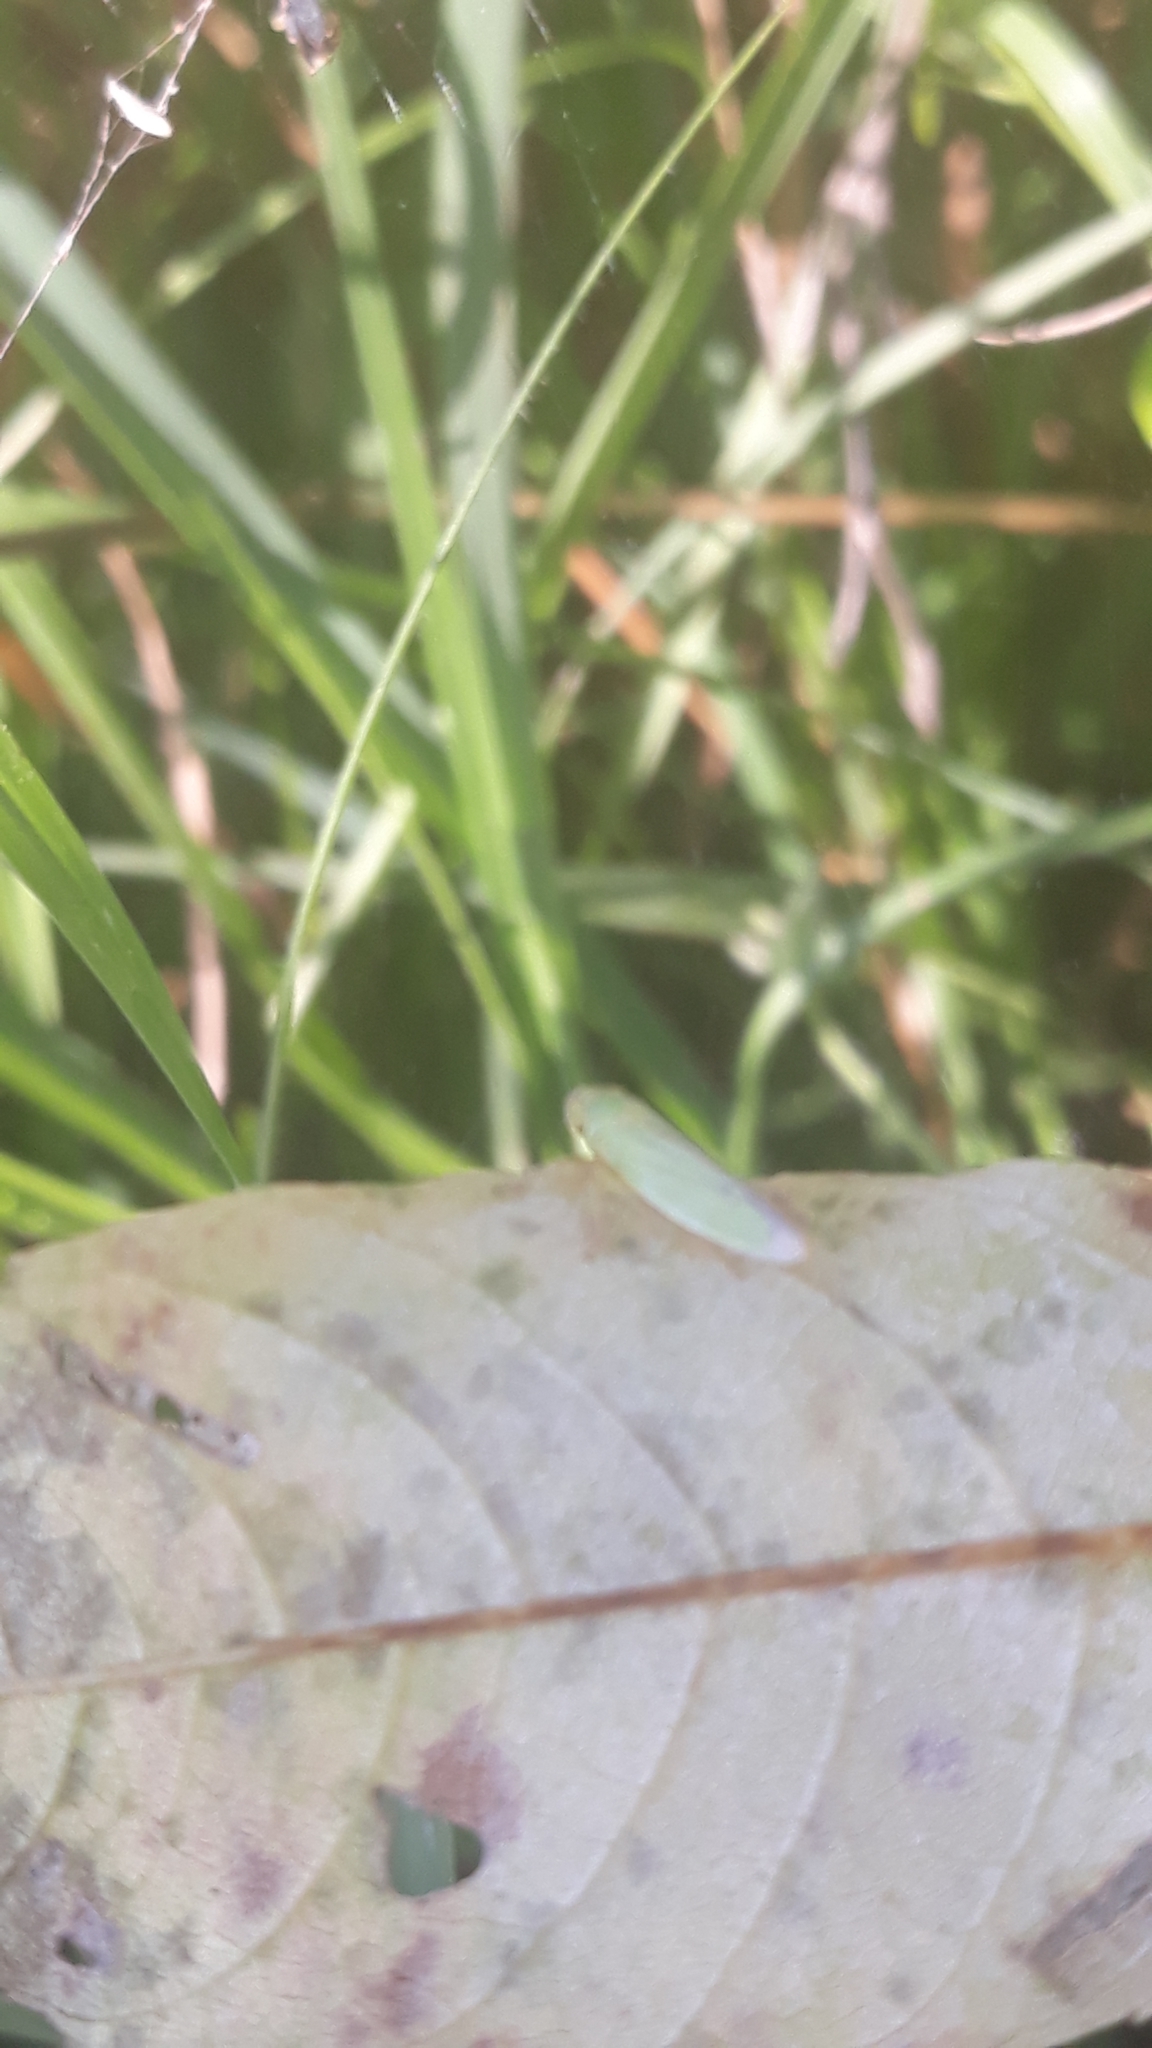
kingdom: Animalia
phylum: Arthropoda
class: Insecta
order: Hemiptera
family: Cicadellidae
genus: Cicadella
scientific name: Cicadella viridis
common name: Leafhopper
